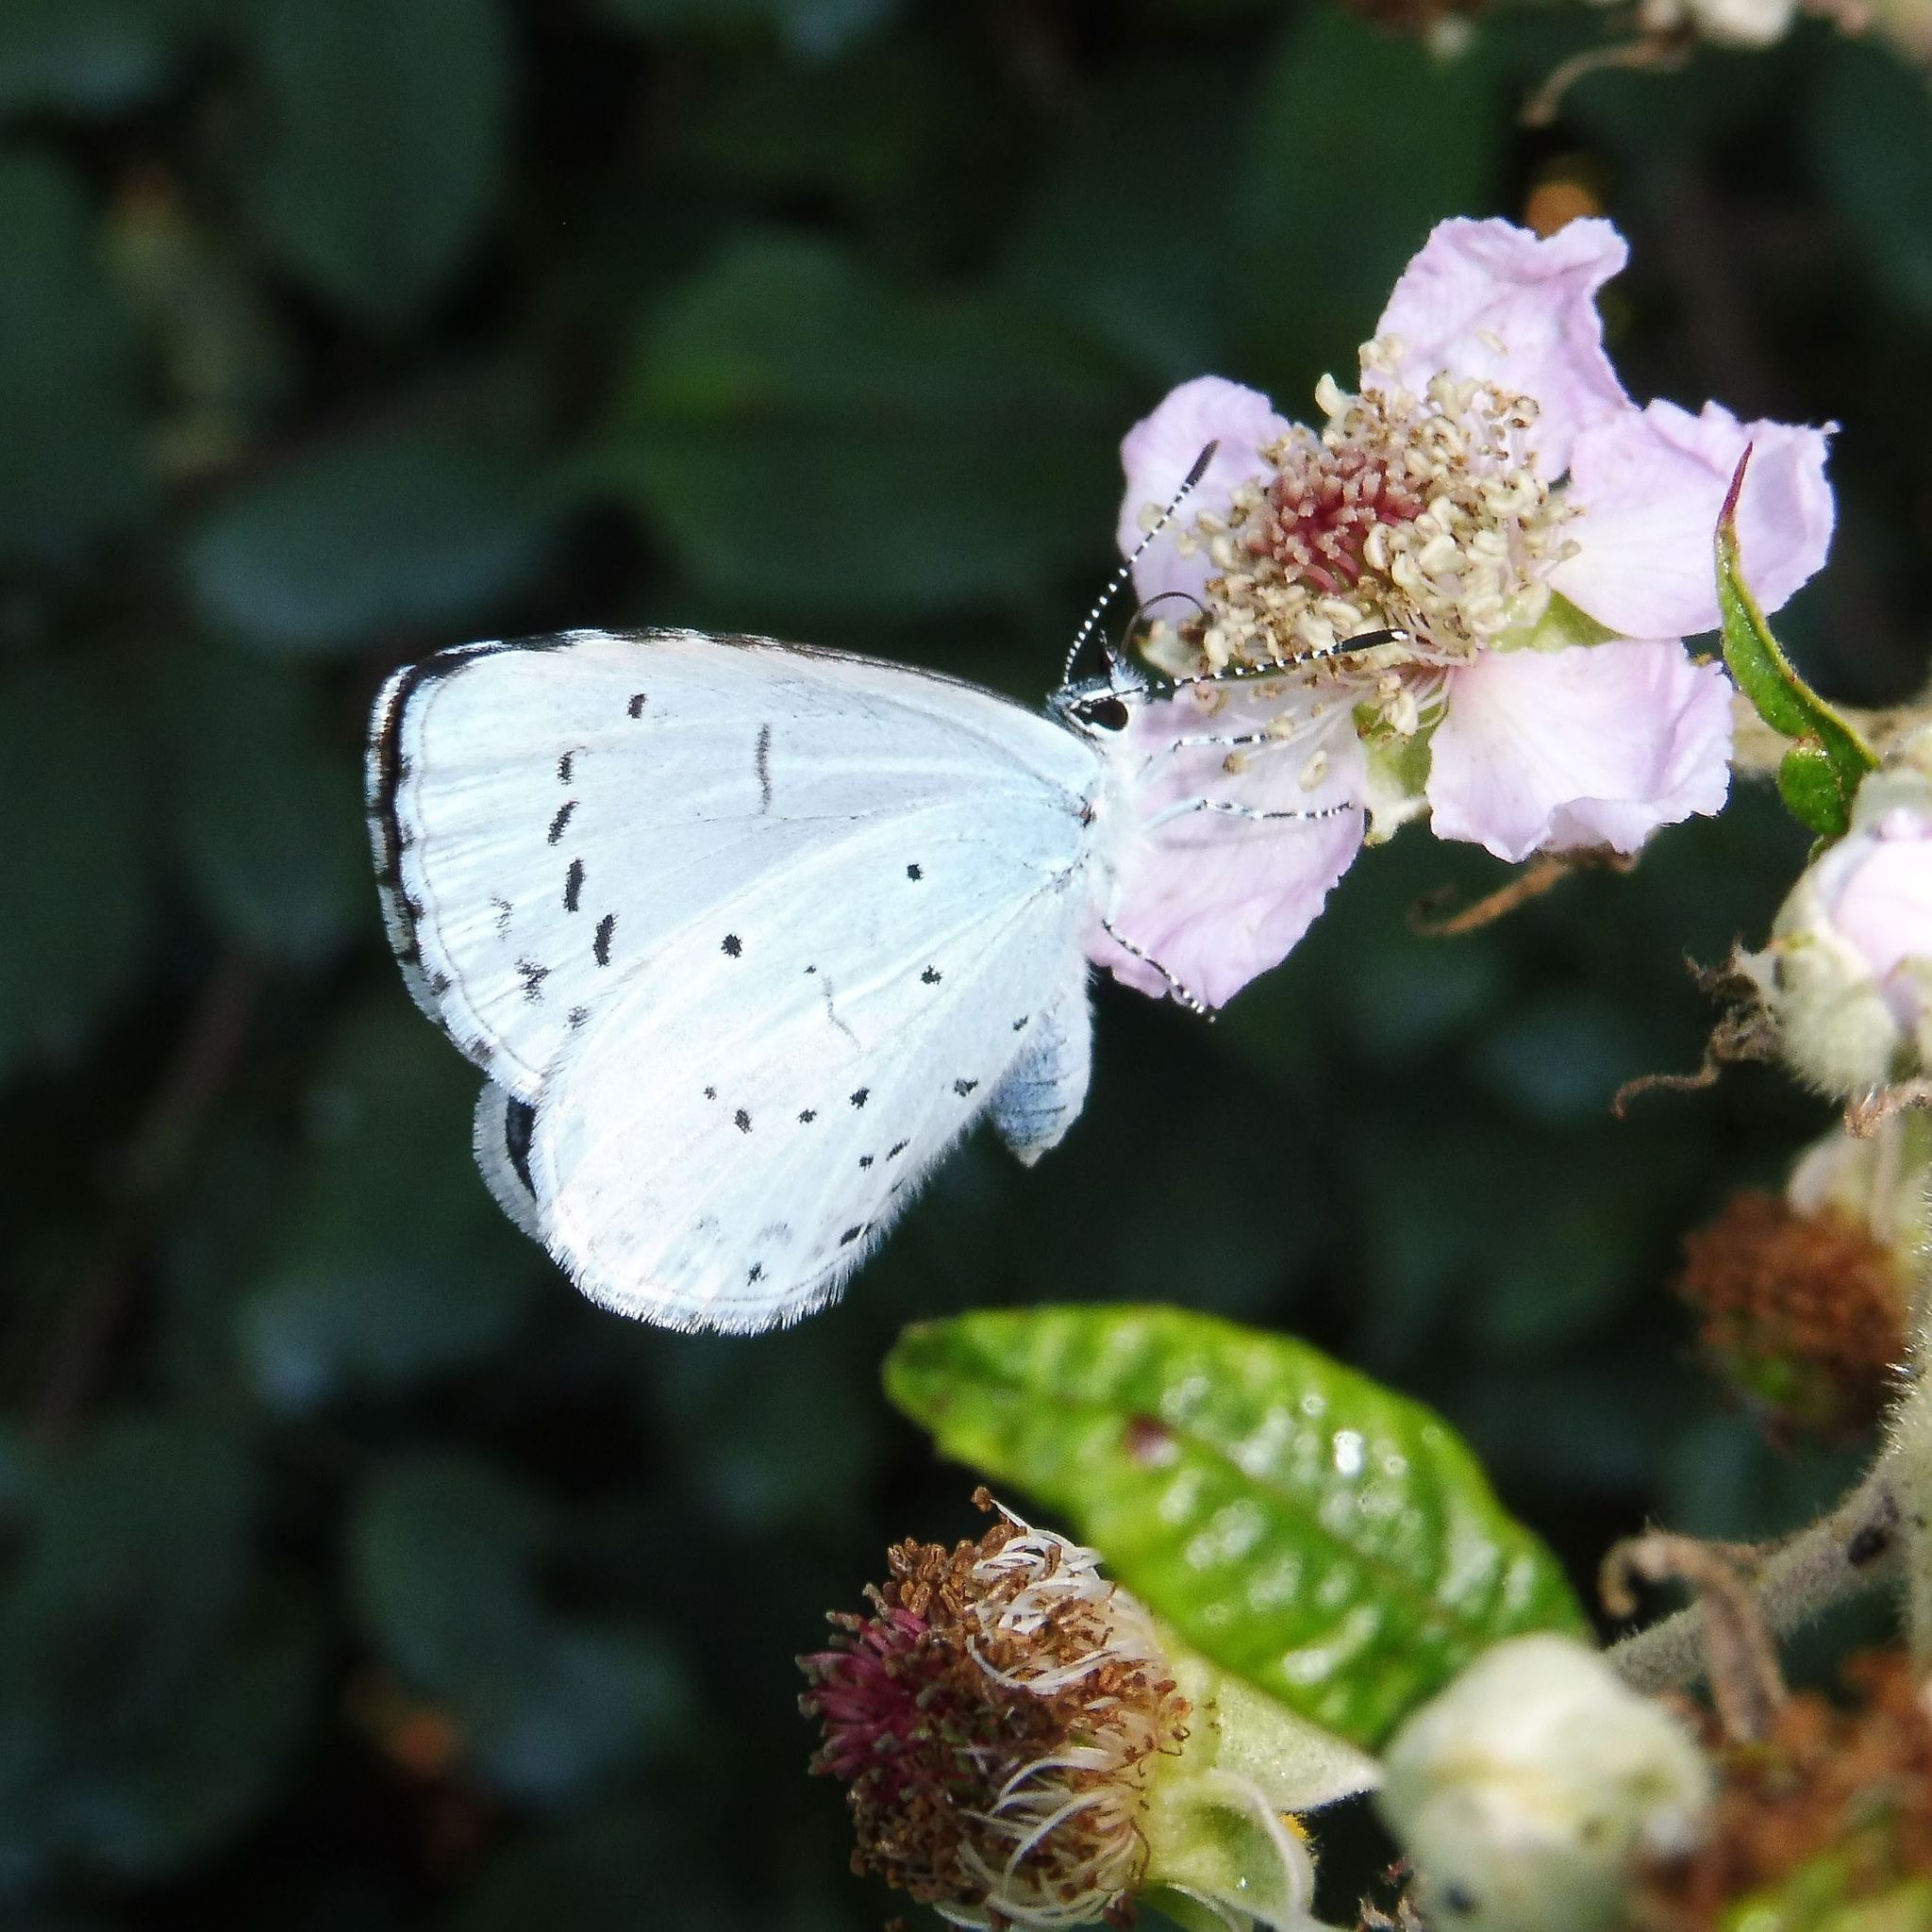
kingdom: Animalia
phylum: Arthropoda
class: Insecta
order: Lepidoptera
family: Lycaenidae
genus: Celastrina
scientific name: Celastrina argiolus
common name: Holly blue
